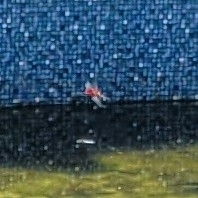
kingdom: Animalia
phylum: Arthropoda
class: Insecta
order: Odonata
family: Libellulidae
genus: Tramea
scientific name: Tramea carolina
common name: Carolina saddlebags
